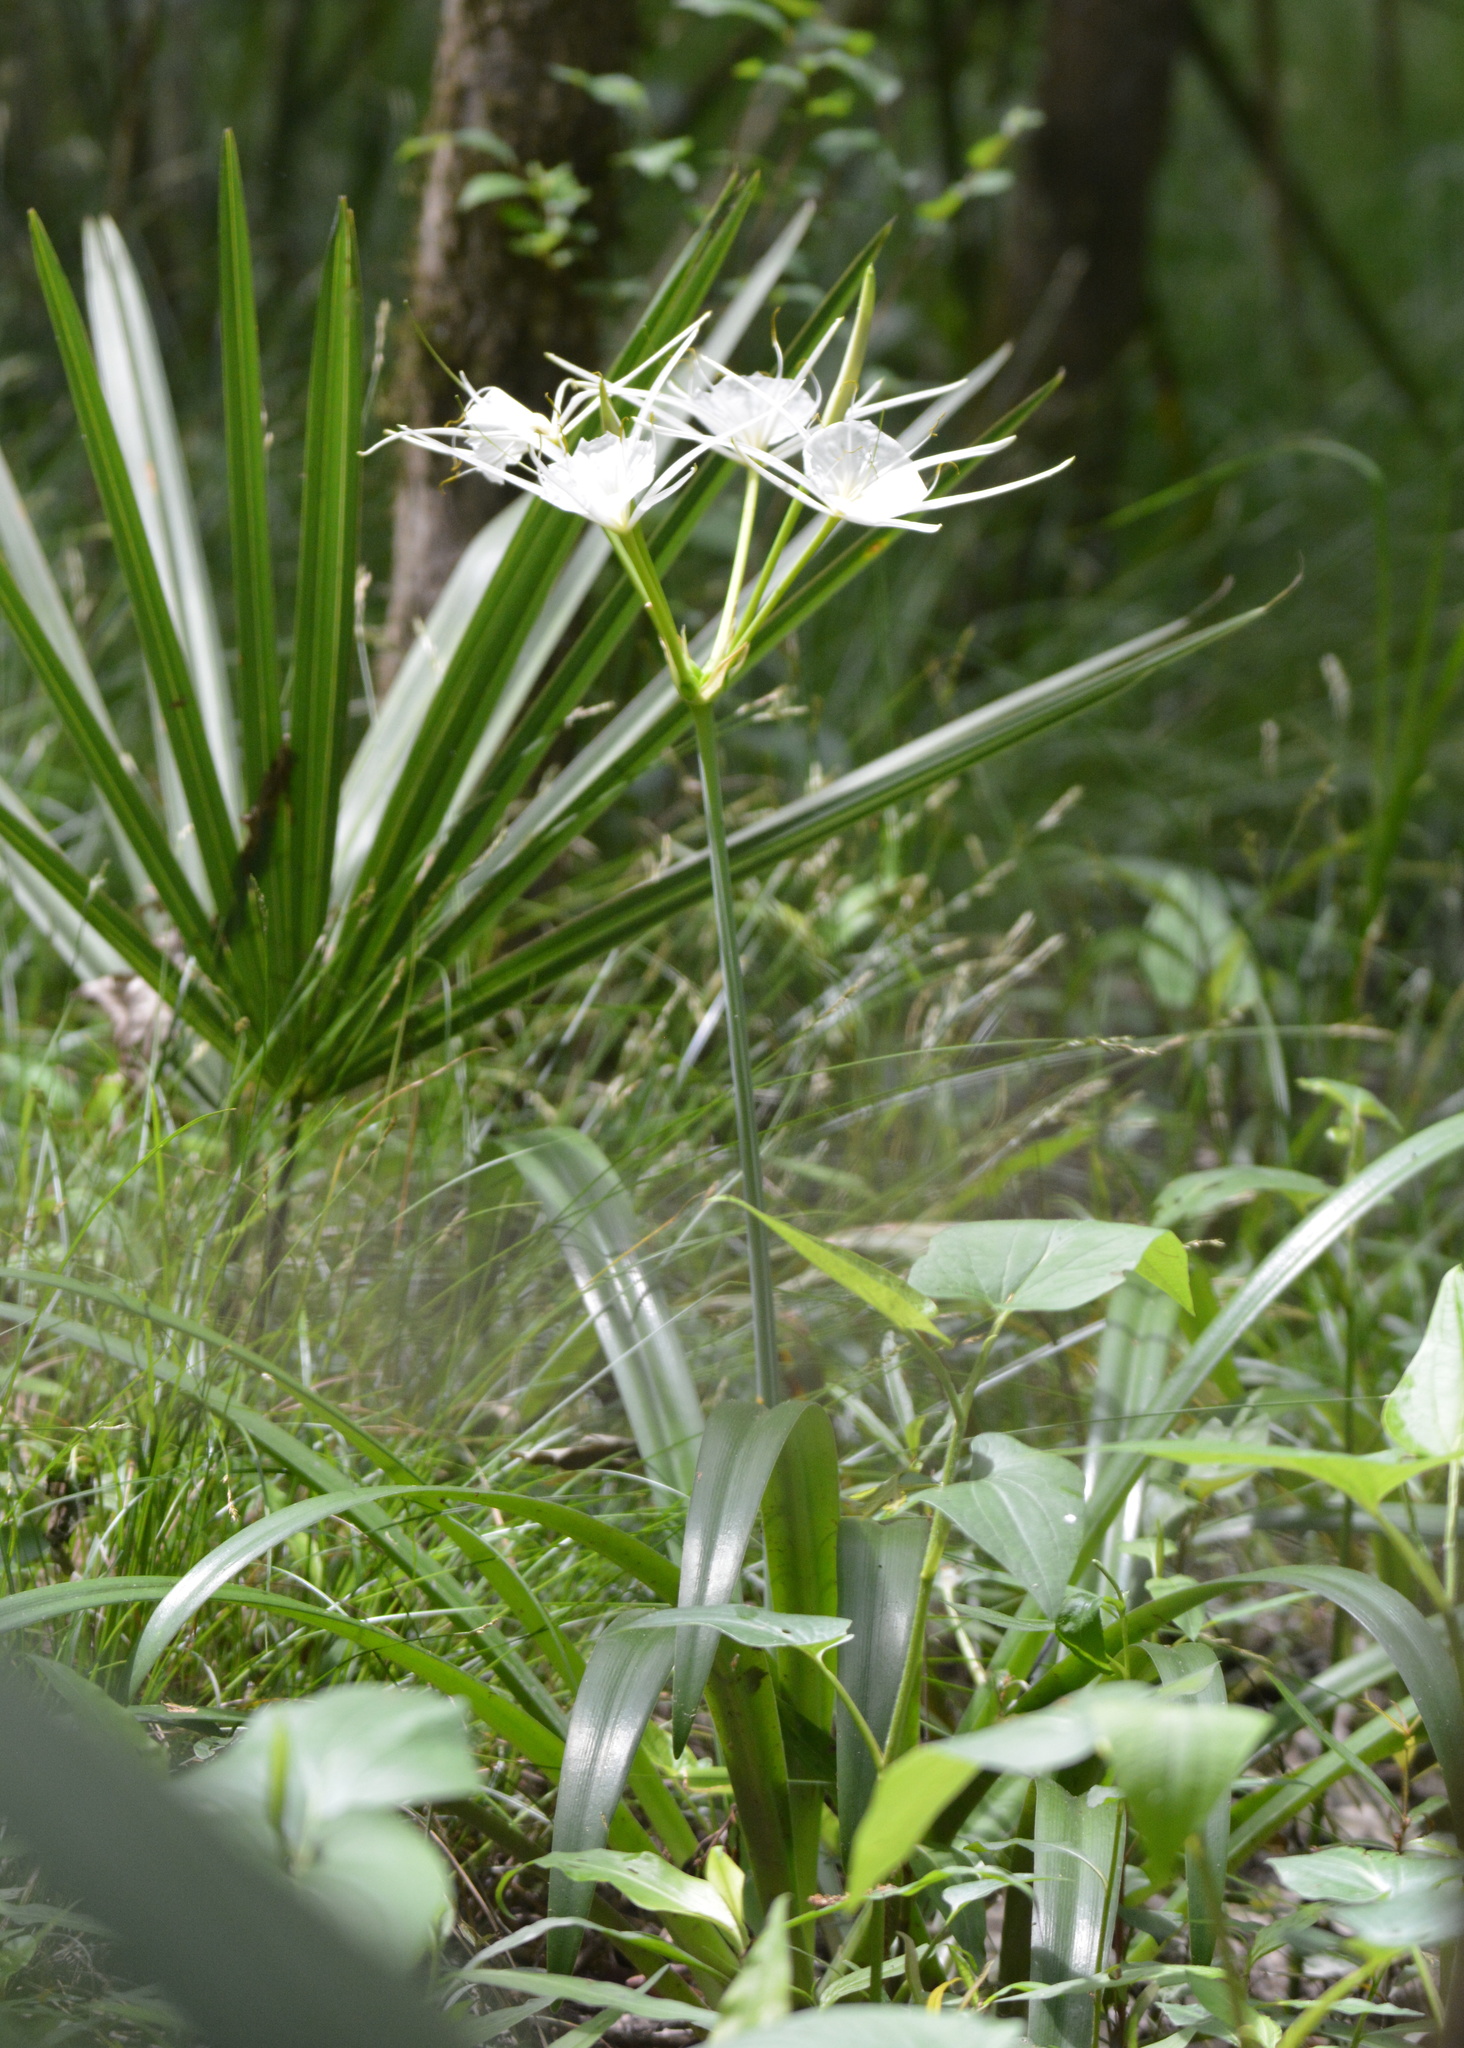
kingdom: Plantae
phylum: Tracheophyta
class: Liliopsida
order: Asparagales
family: Amaryllidaceae
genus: Hymenocallis
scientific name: Hymenocallis liriosme
